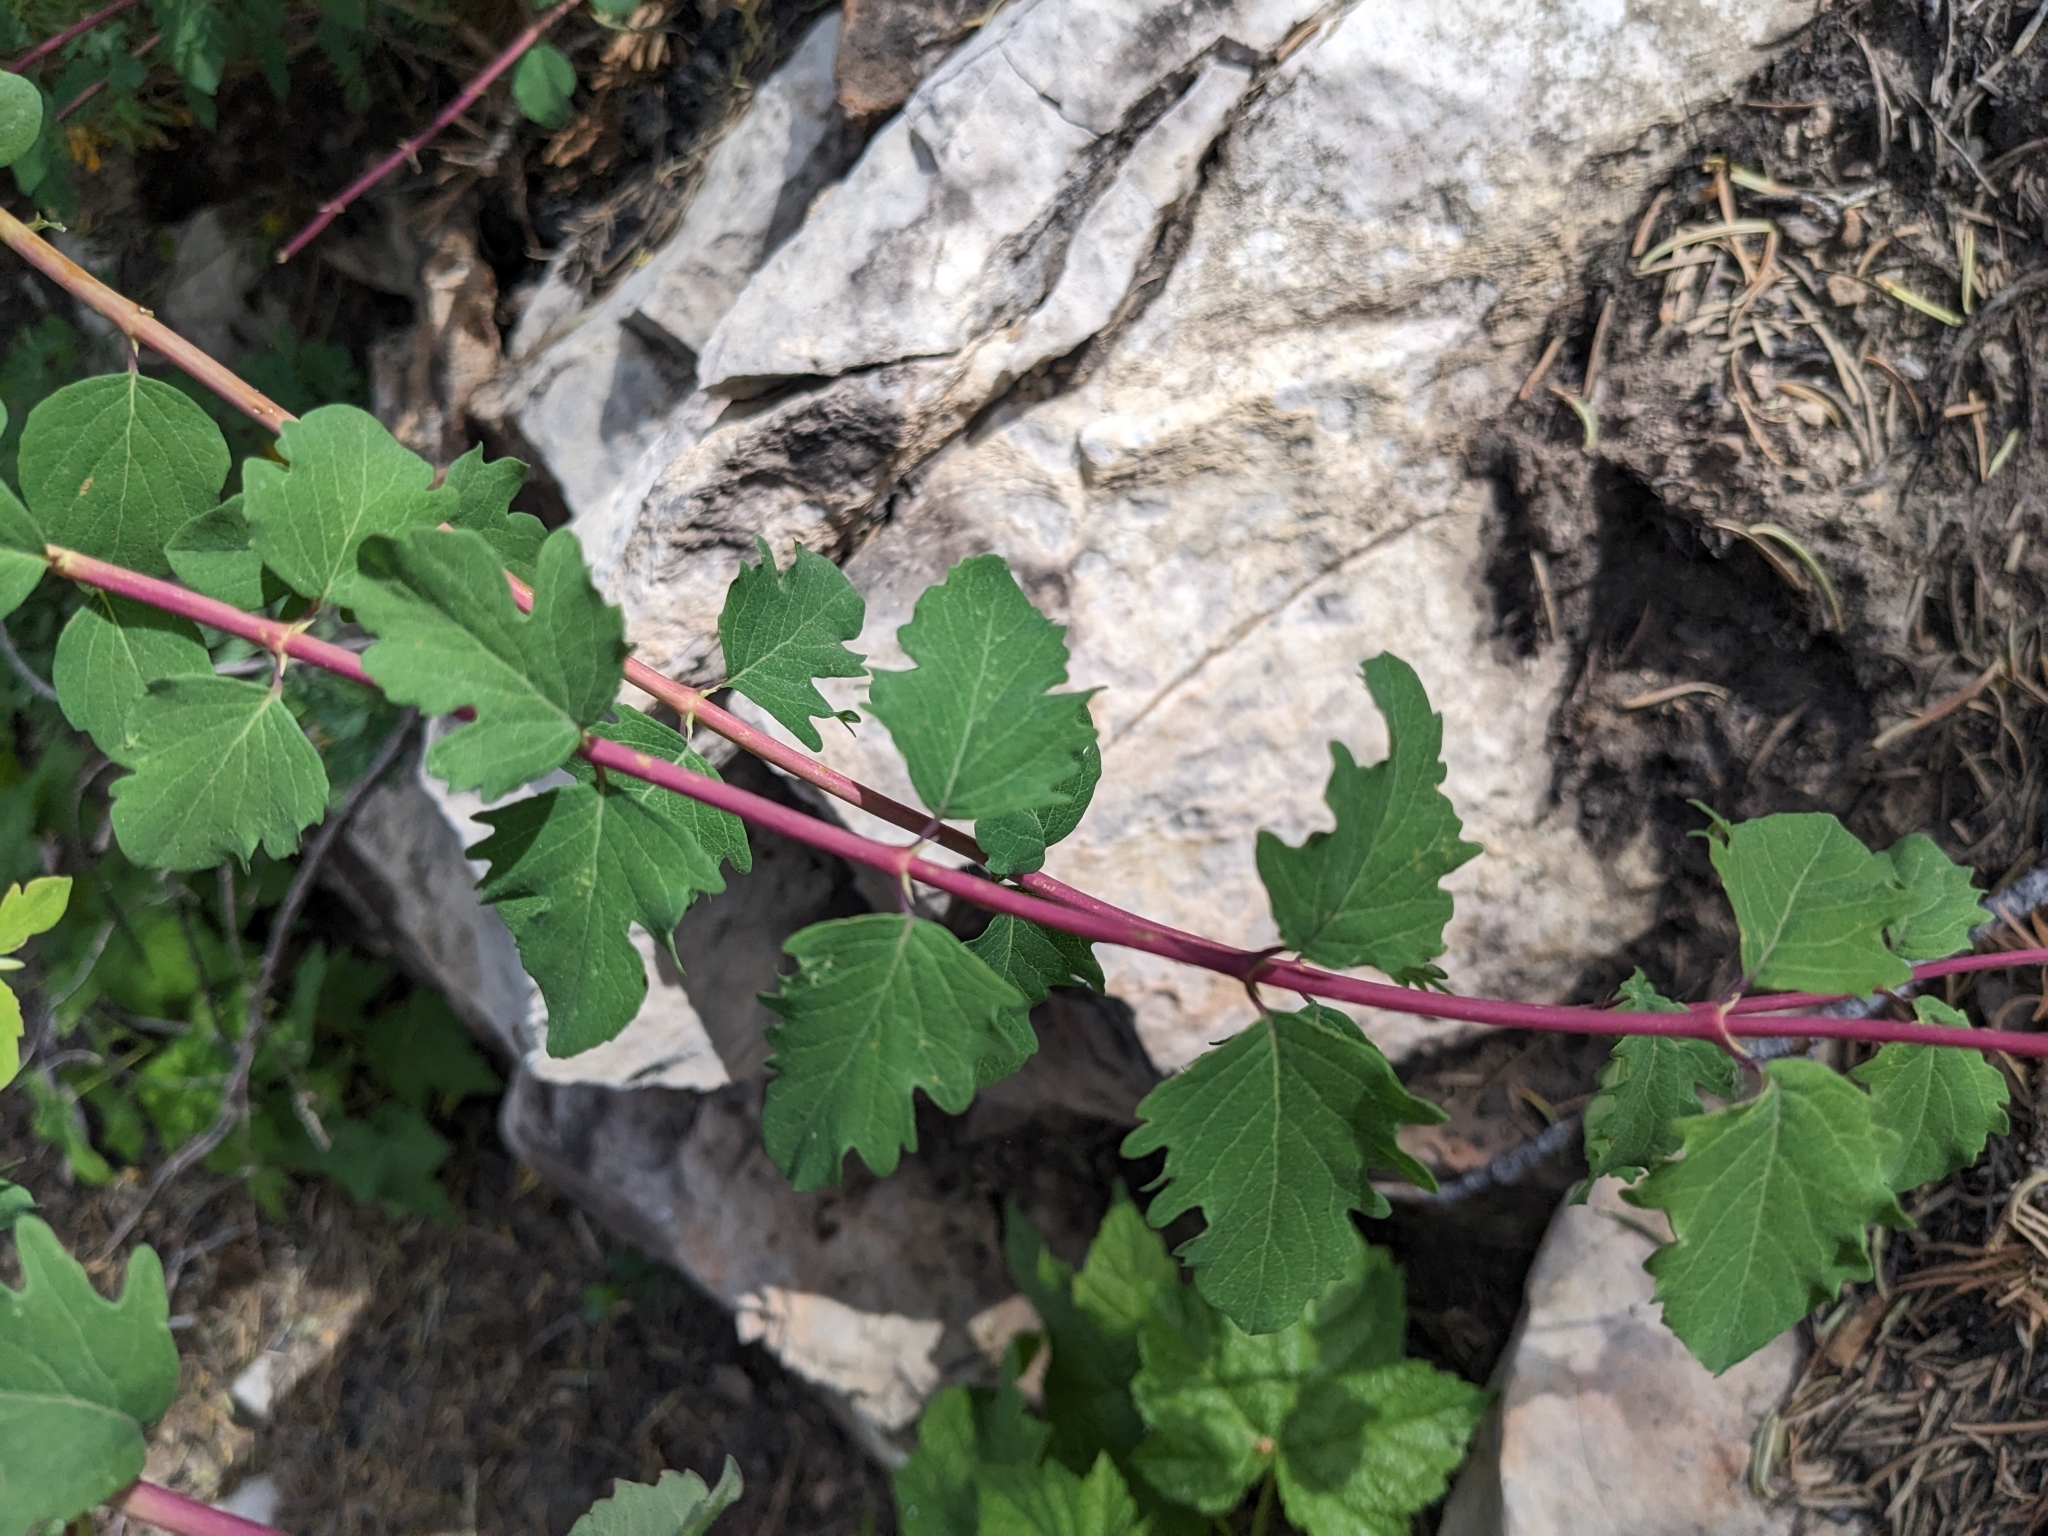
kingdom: Plantae
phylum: Tracheophyta
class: Magnoliopsida
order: Dipsacales
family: Caprifoliaceae
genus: Symphoricarpos
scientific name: Symphoricarpos rotundifolius
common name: Round-leaved snowberry
